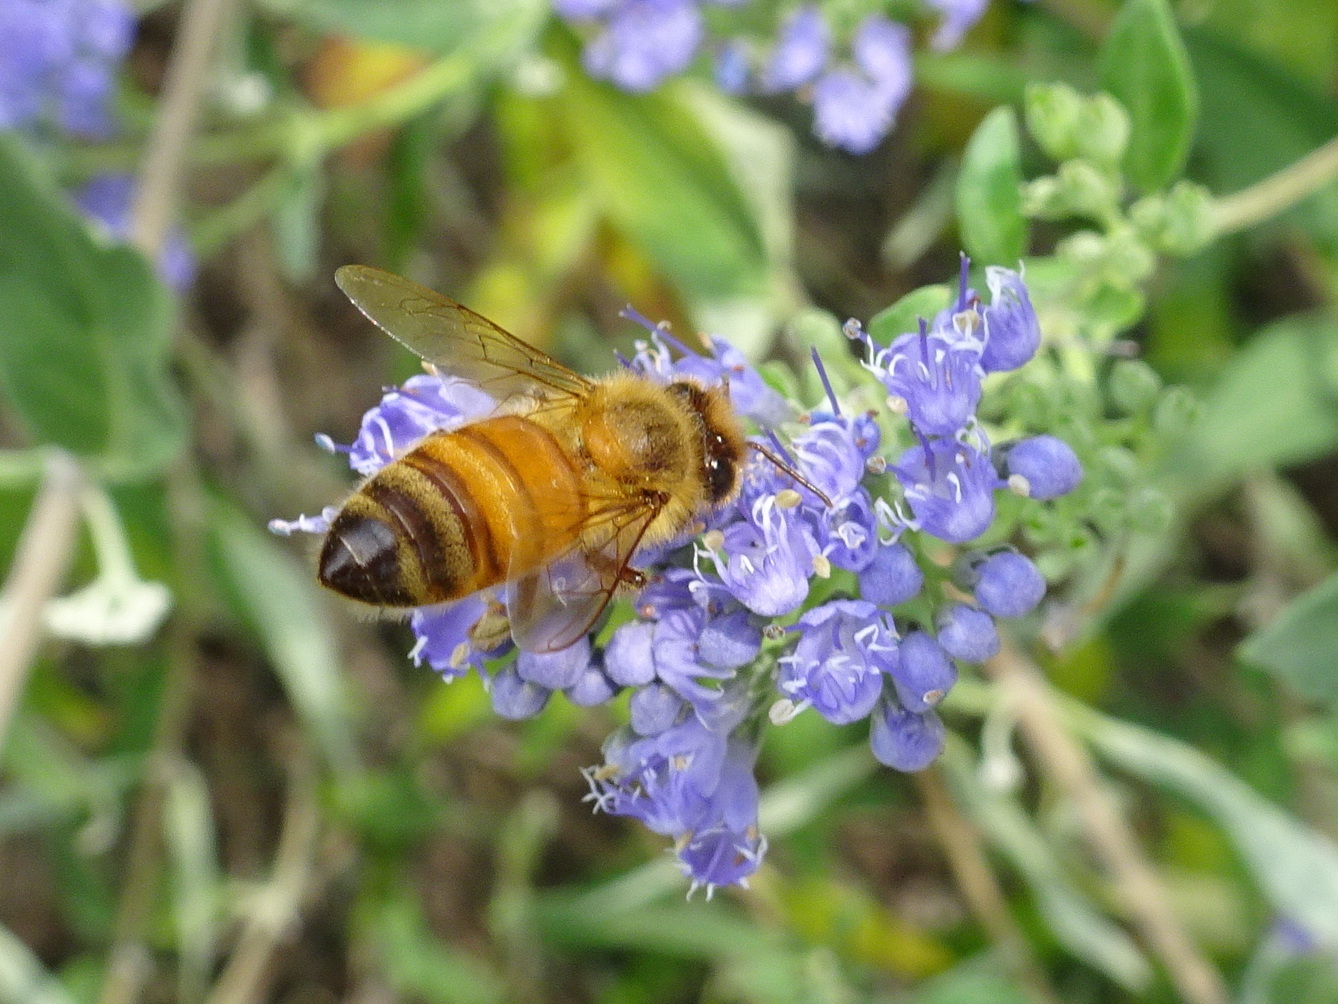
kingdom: Animalia
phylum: Arthropoda
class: Insecta
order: Hymenoptera
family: Apidae
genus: Apis
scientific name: Apis mellifera
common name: Honey bee
